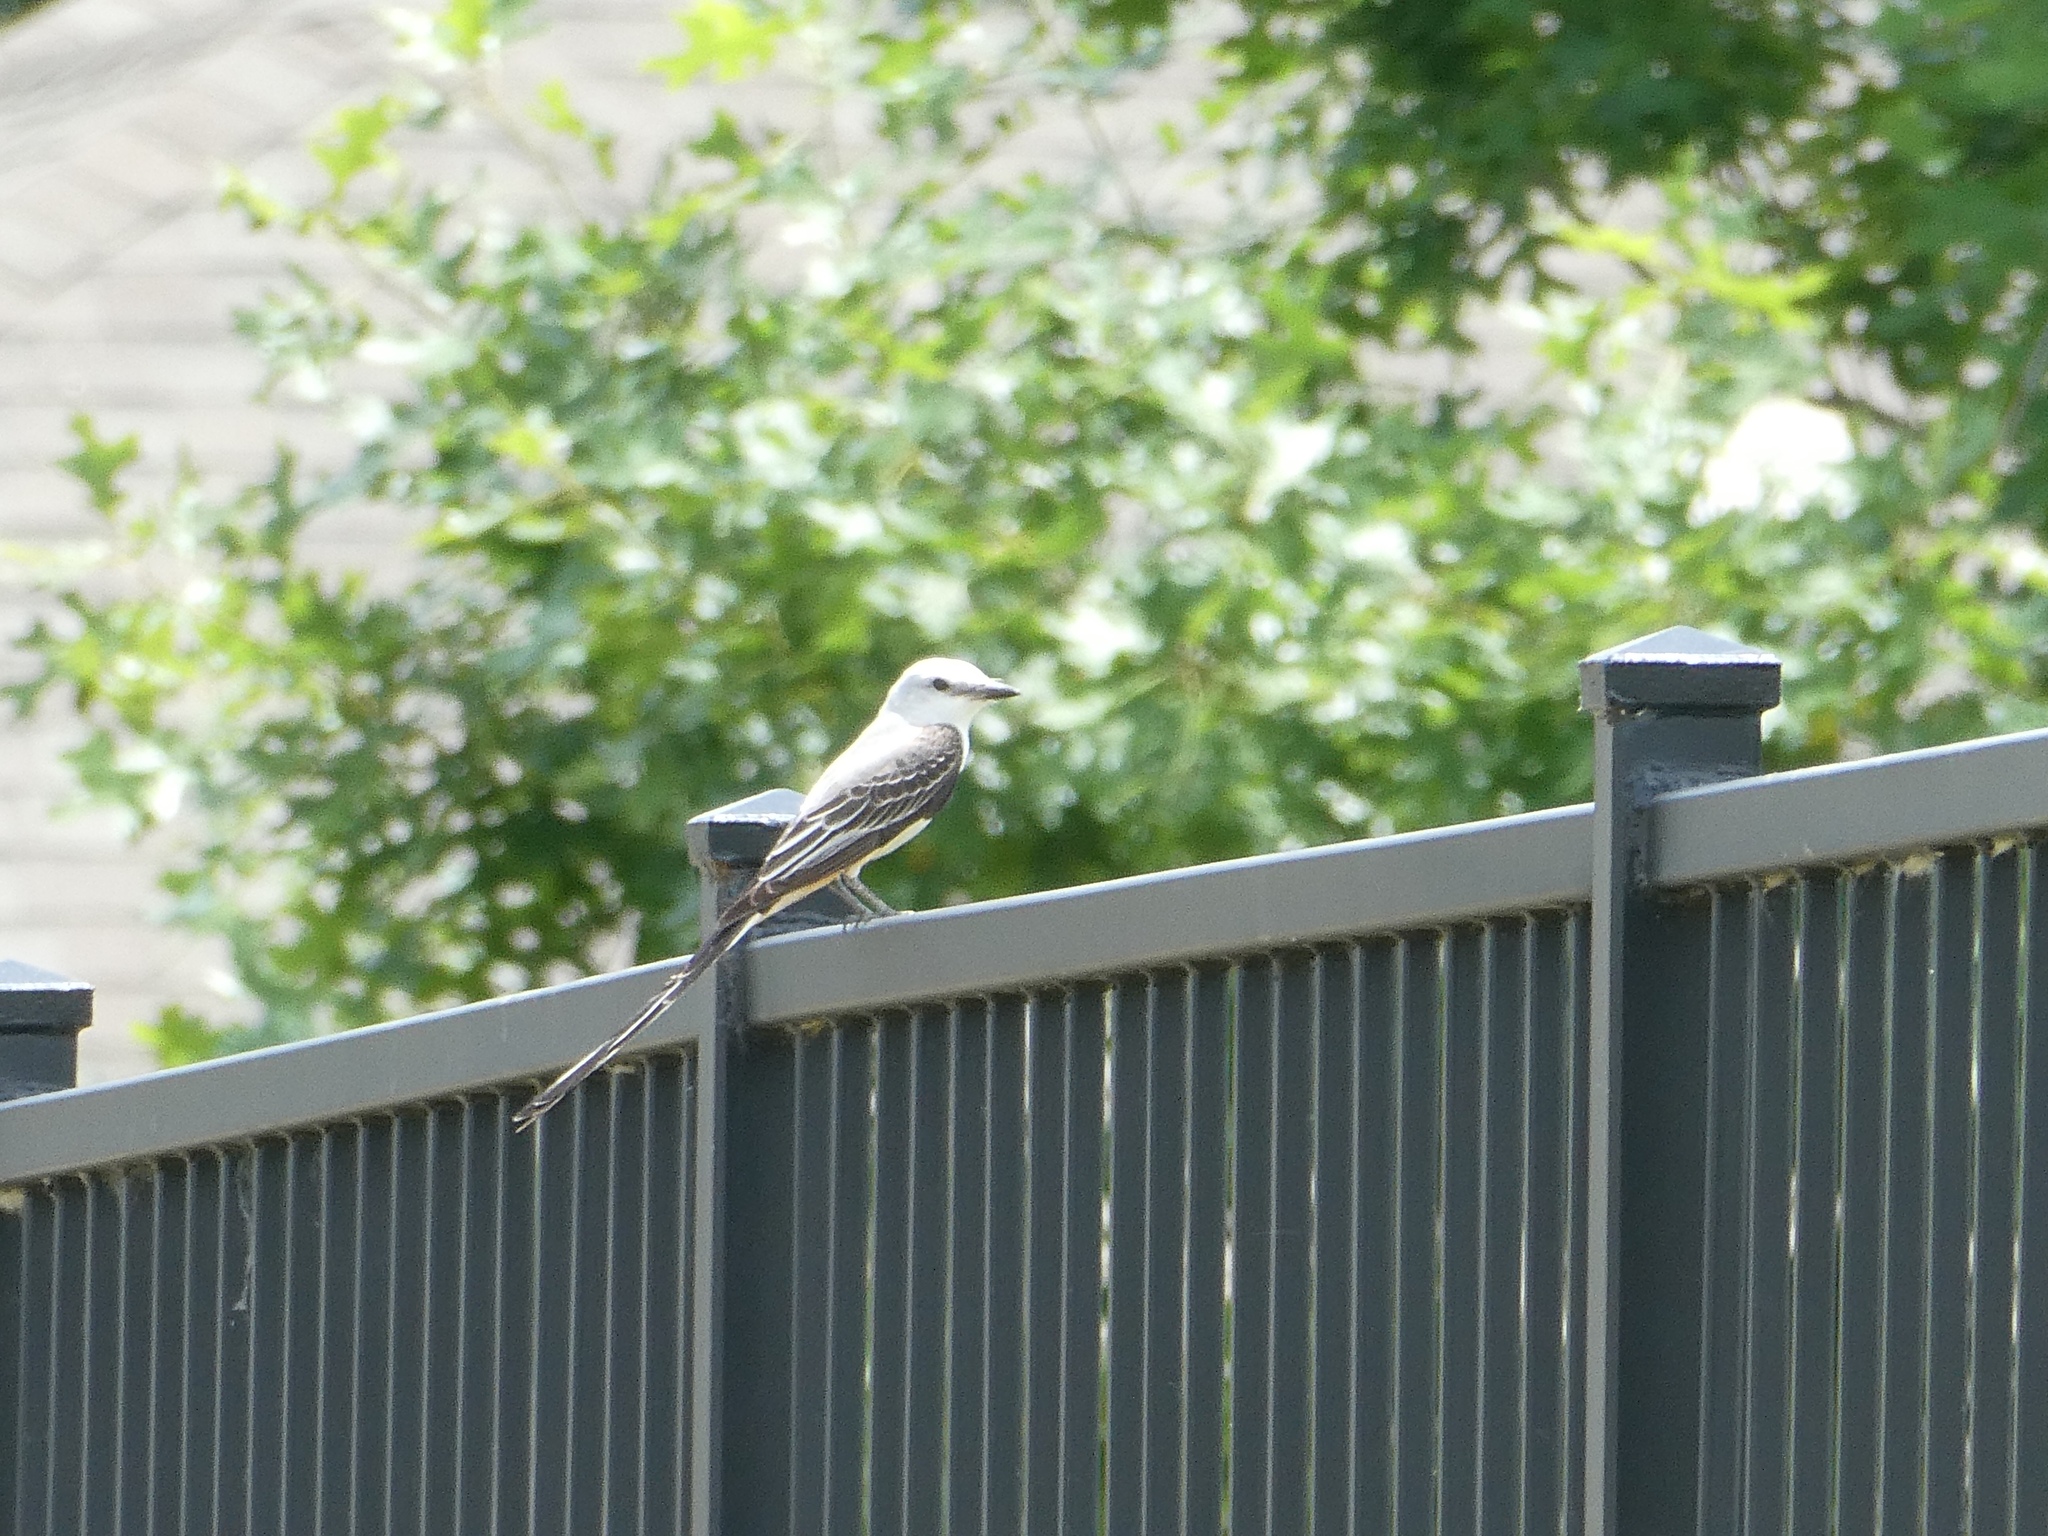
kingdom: Animalia
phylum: Chordata
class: Aves
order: Passeriformes
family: Tyrannidae
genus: Tyrannus
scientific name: Tyrannus forficatus
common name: Scissor-tailed flycatcher
